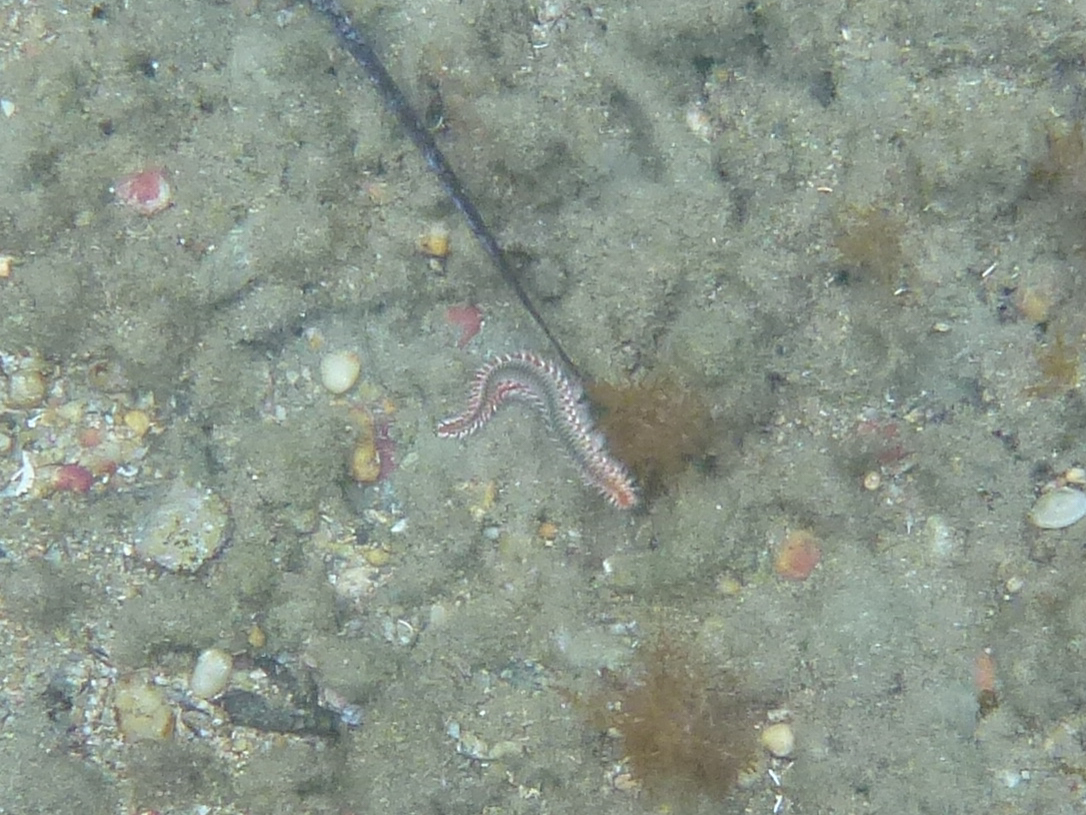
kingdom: Animalia
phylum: Annelida
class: Polychaeta
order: Amphinomida
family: Amphinomidae
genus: Hermodice
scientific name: Hermodice carunculata
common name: Bearded fireworm
